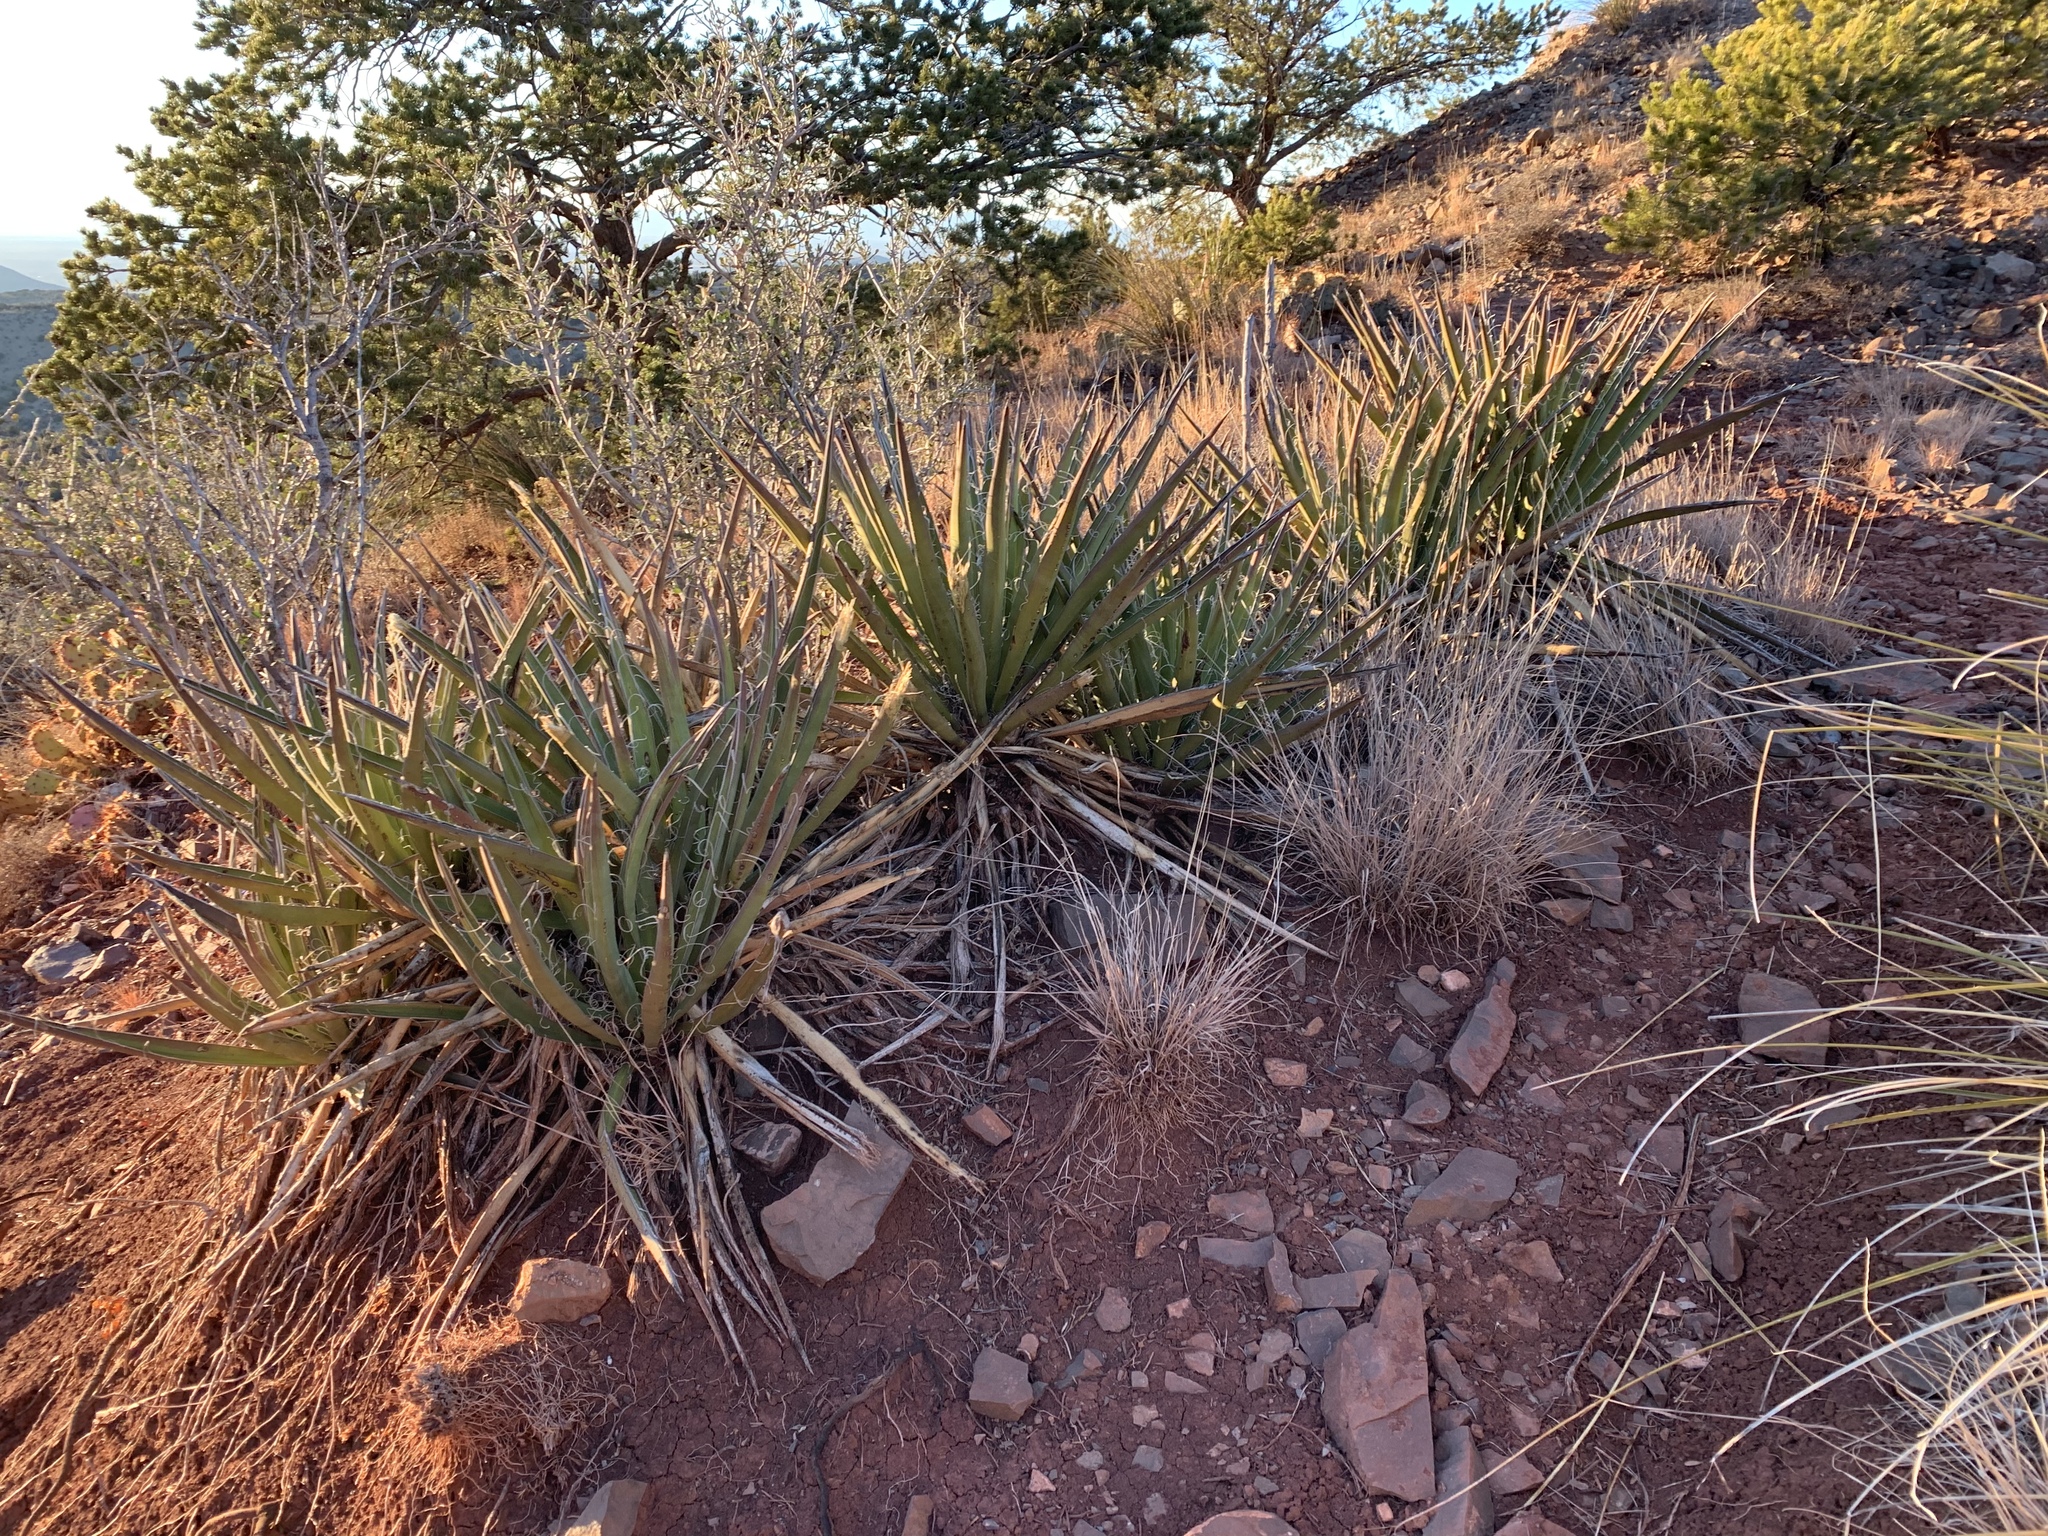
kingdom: Plantae
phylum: Tracheophyta
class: Liliopsida
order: Asparagales
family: Asparagaceae
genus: Yucca
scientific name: Yucca baccata
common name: Banana yucca
